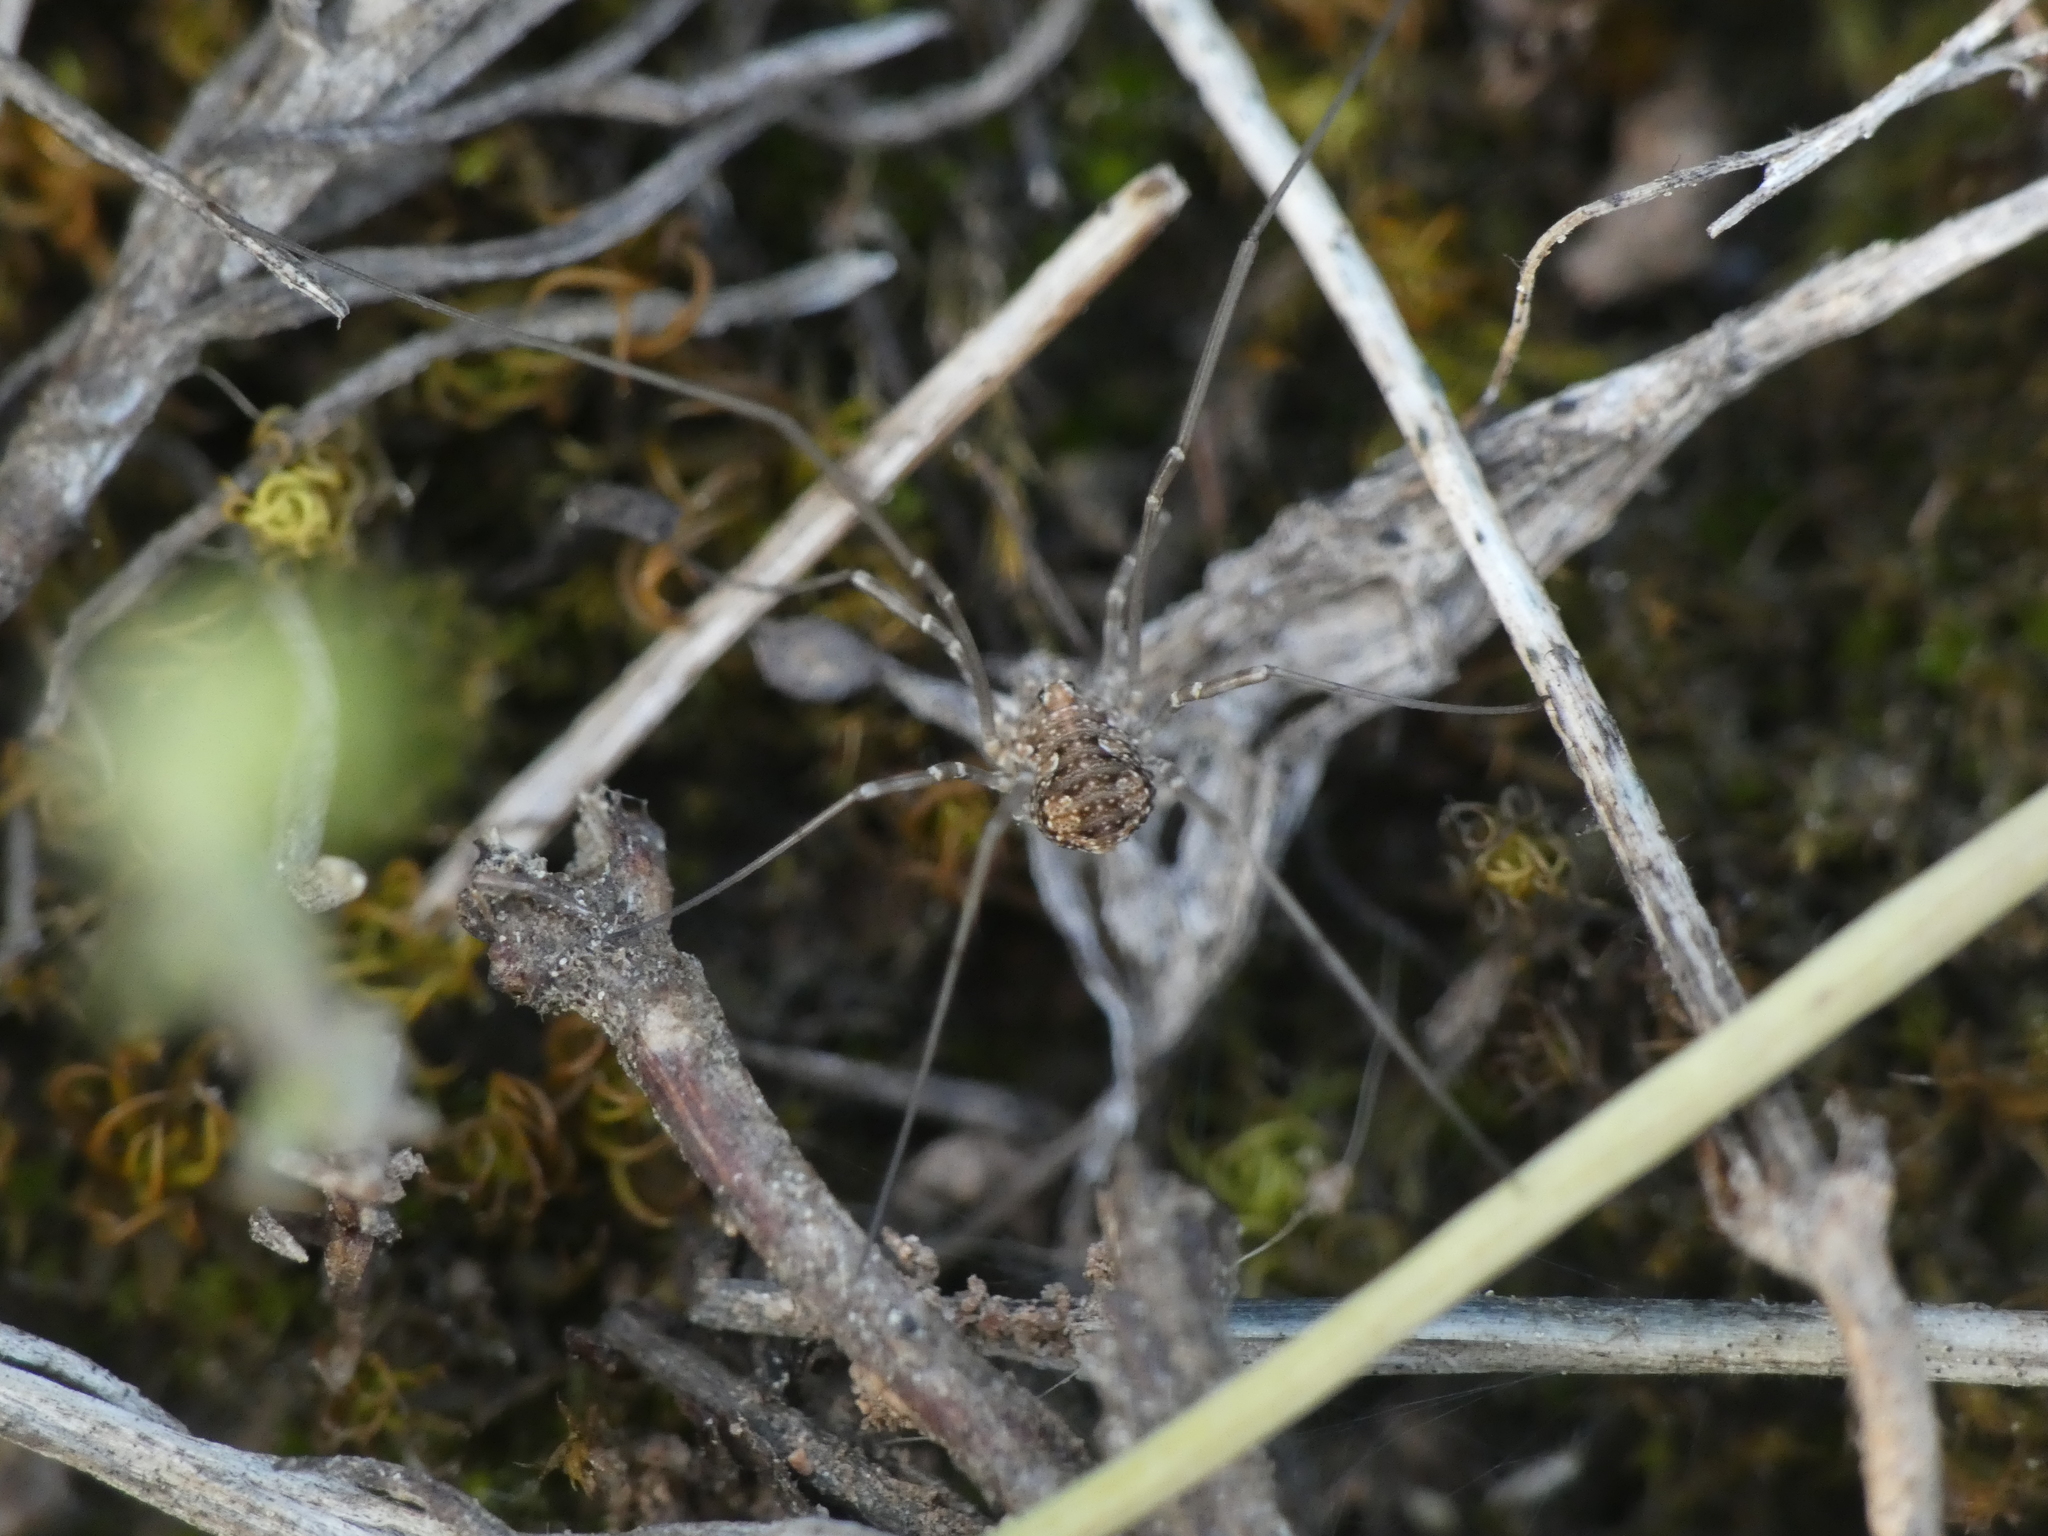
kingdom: Animalia
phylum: Arthropoda
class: Arachnida
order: Opiliones
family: Phalangiidae
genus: Phalangium
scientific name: Phalangium opilio
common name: Daddy longleg
